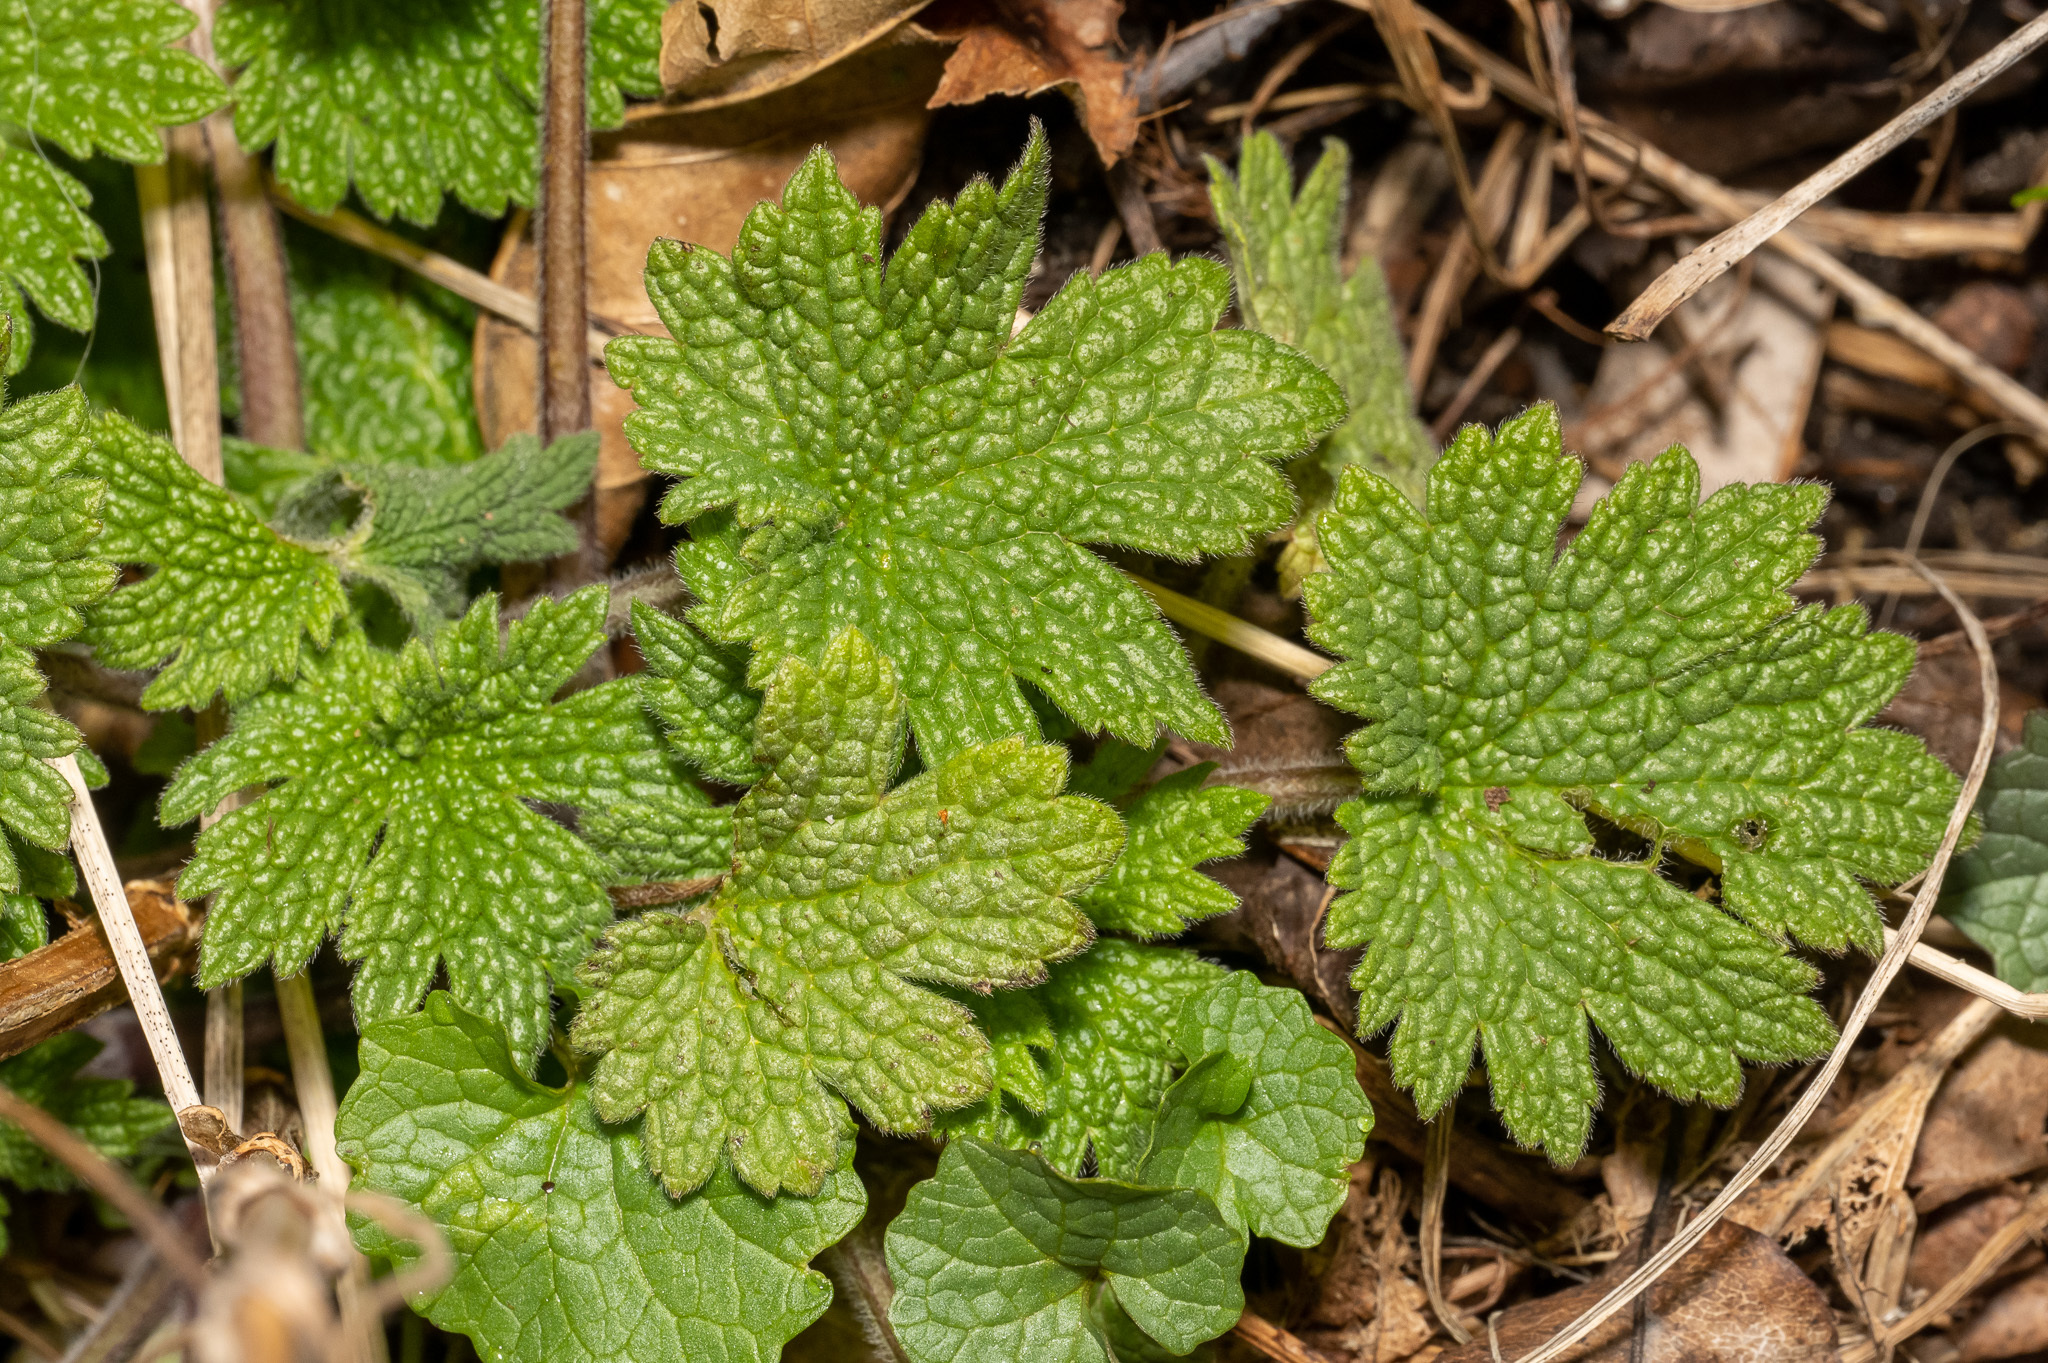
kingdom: Plantae
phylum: Tracheophyta
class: Magnoliopsida
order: Lamiales
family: Lamiaceae
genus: Leonurus
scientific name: Leonurus cardiaca
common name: Motherwort
